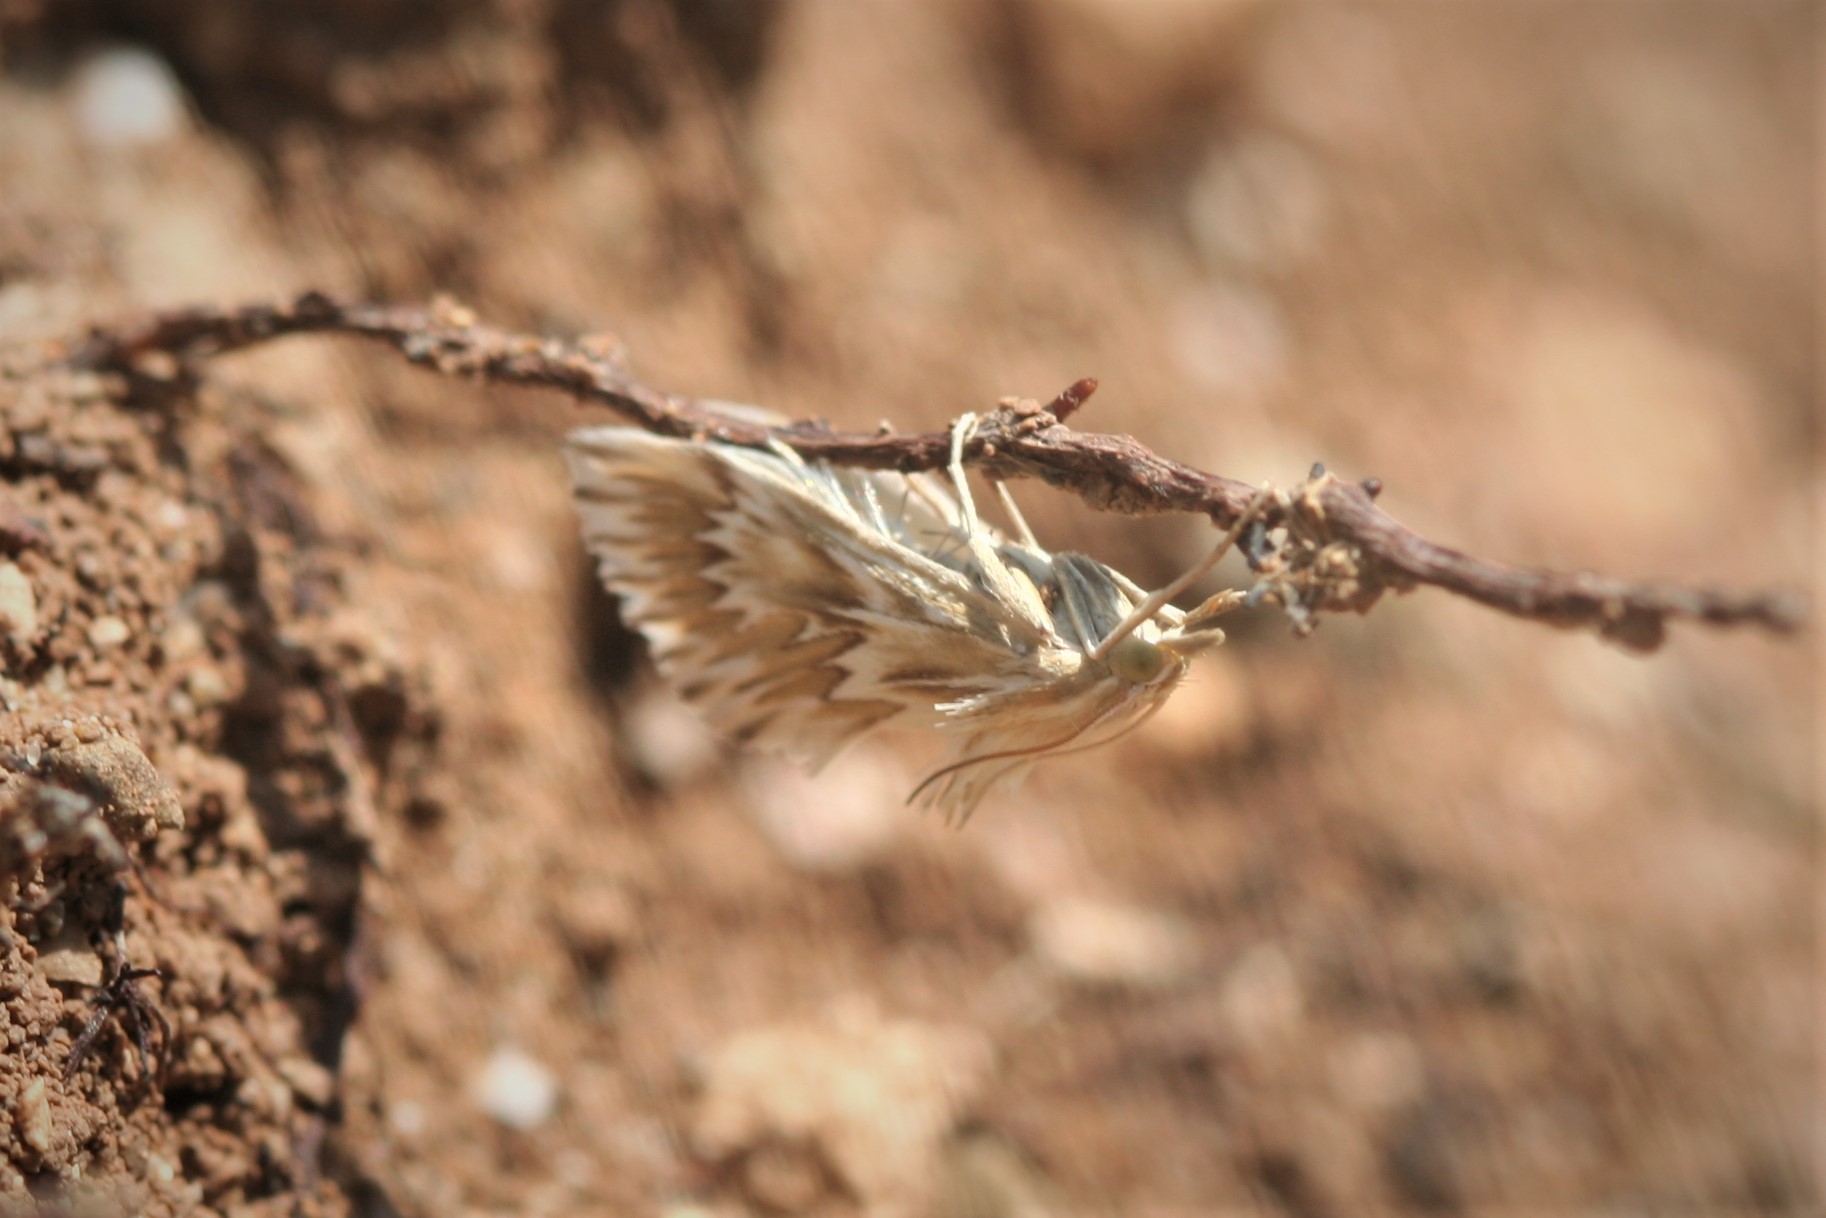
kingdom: Animalia
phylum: Arthropoda
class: Insecta
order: Lepidoptera
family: Crambidae
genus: Cynaeda
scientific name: Cynaeda gigantea
